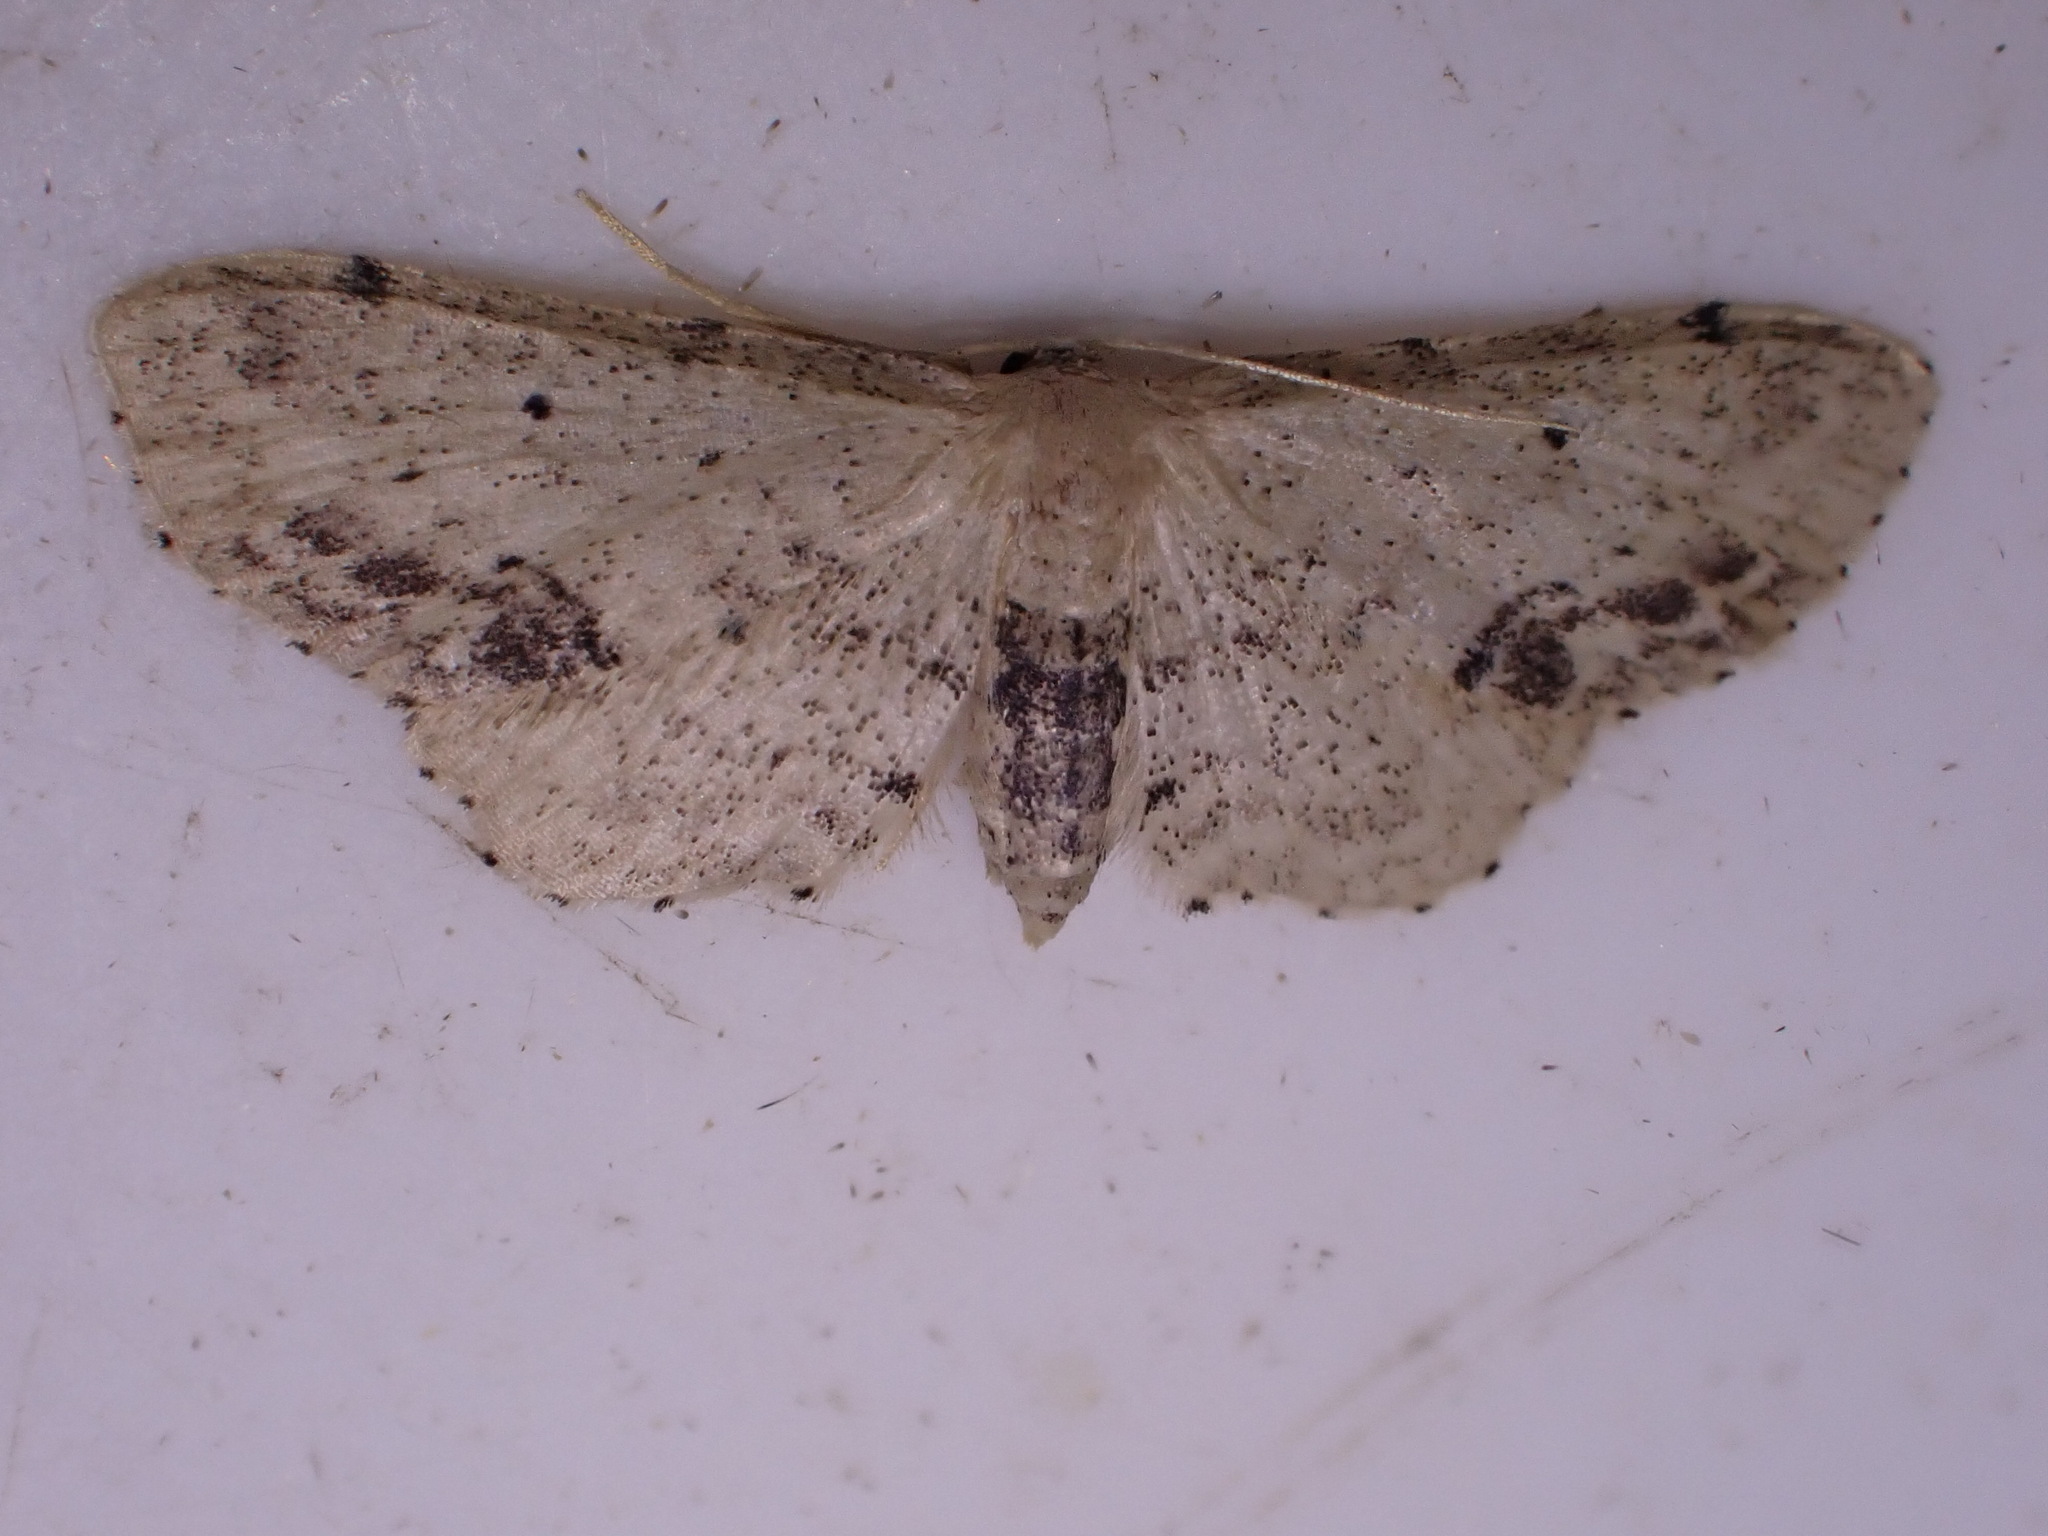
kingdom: Animalia
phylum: Arthropoda
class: Insecta
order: Lepidoptera
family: Geometridae
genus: Idaea
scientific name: Idaea dimidiata
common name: Single-dotted wave
